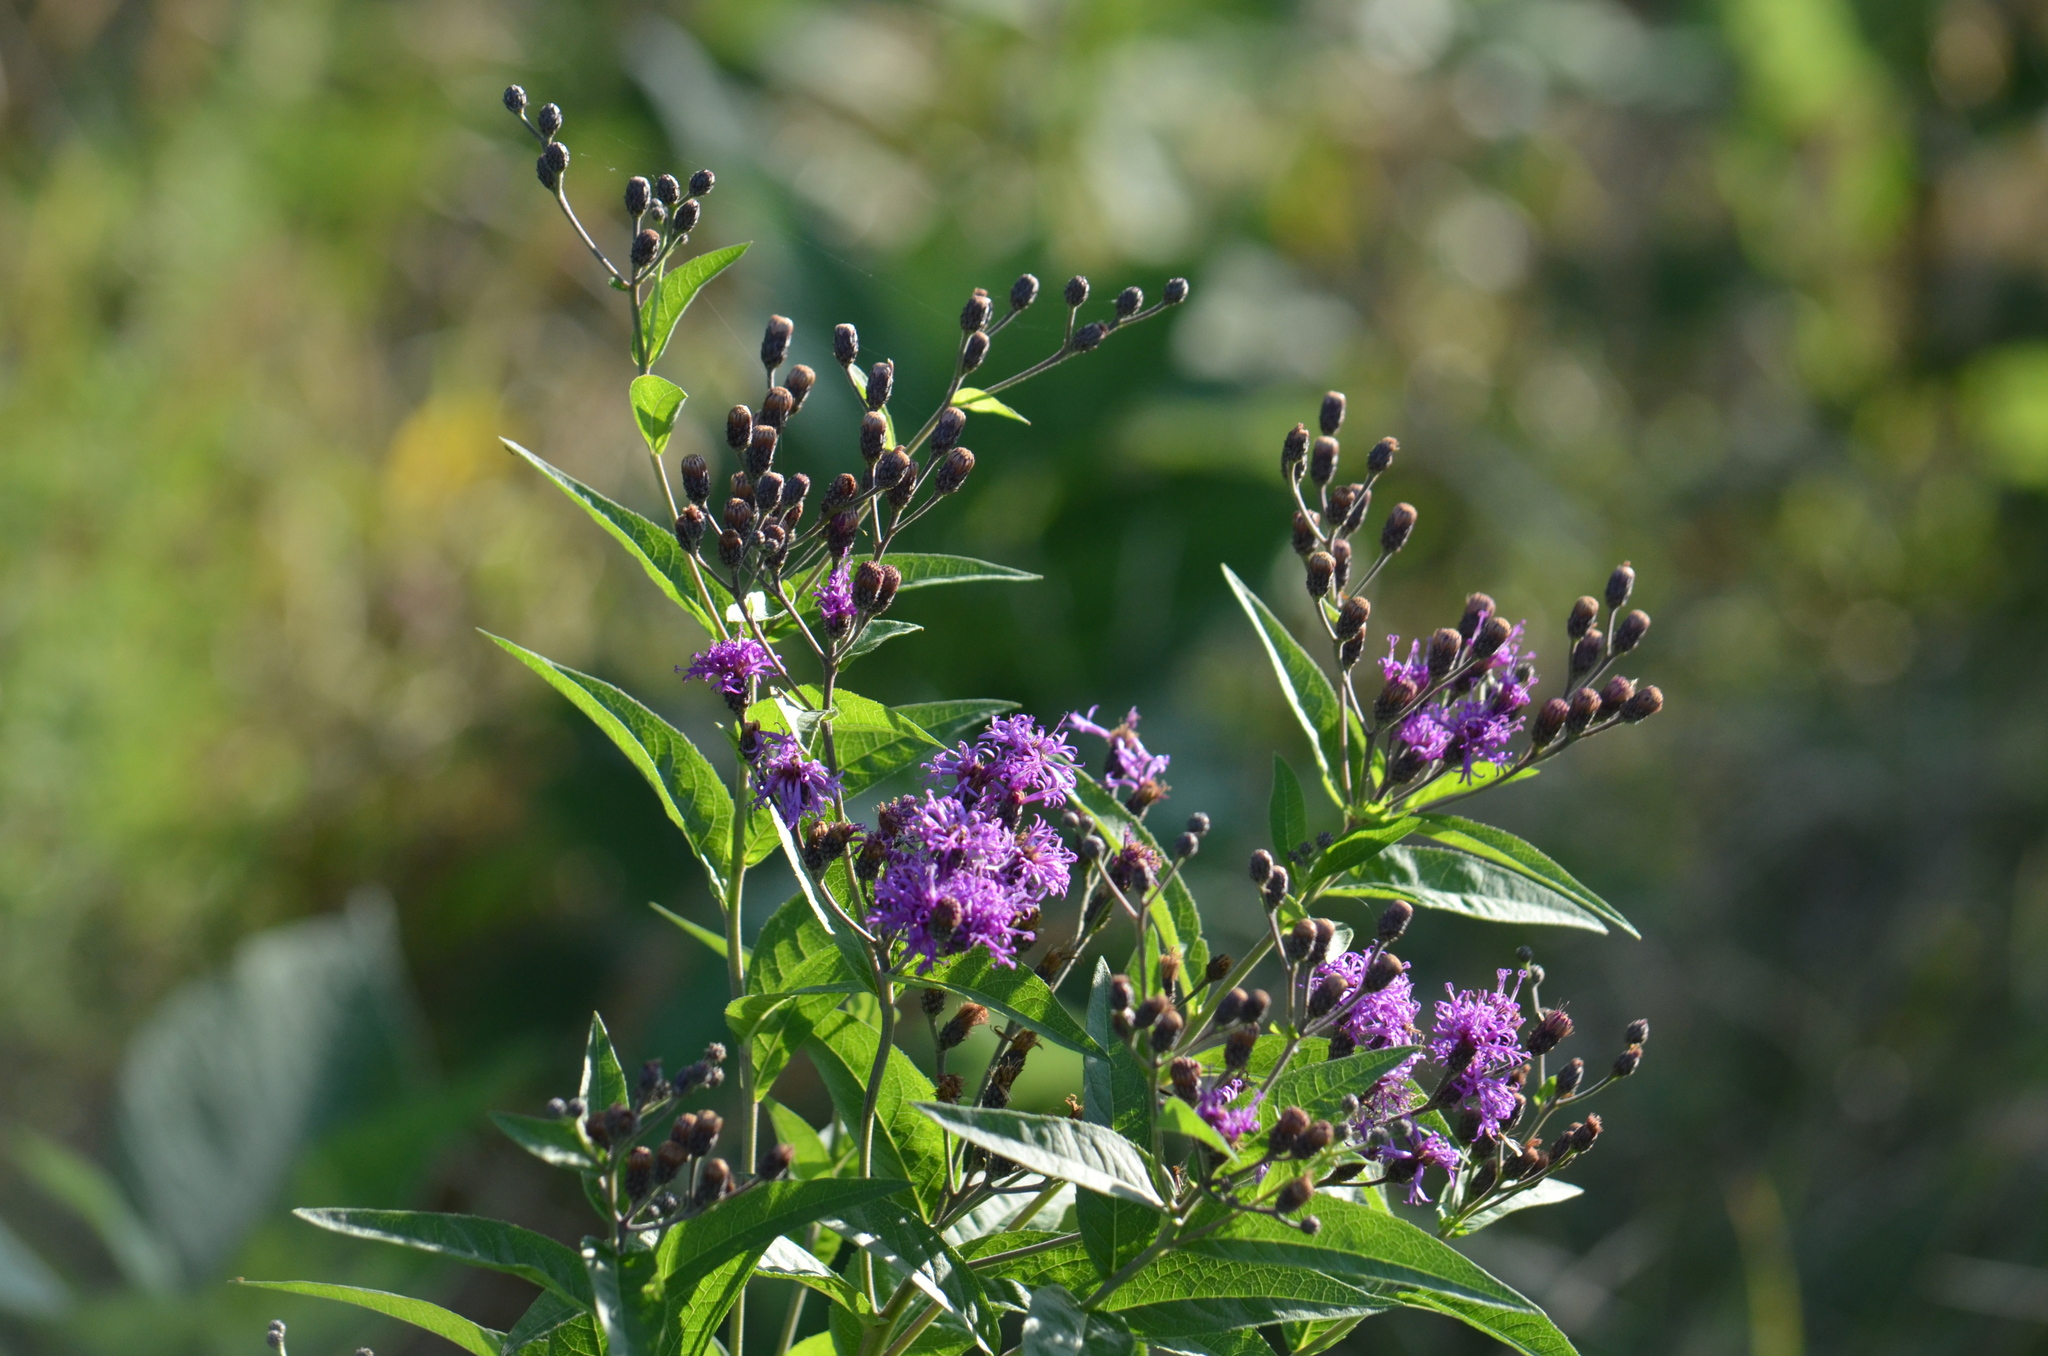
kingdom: Plantae
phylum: Tracheophyta
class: Magnoliopsida
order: Asterales
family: Asteraceae
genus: Vernonia
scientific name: Vernonia baldwinii
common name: Western ironweed
